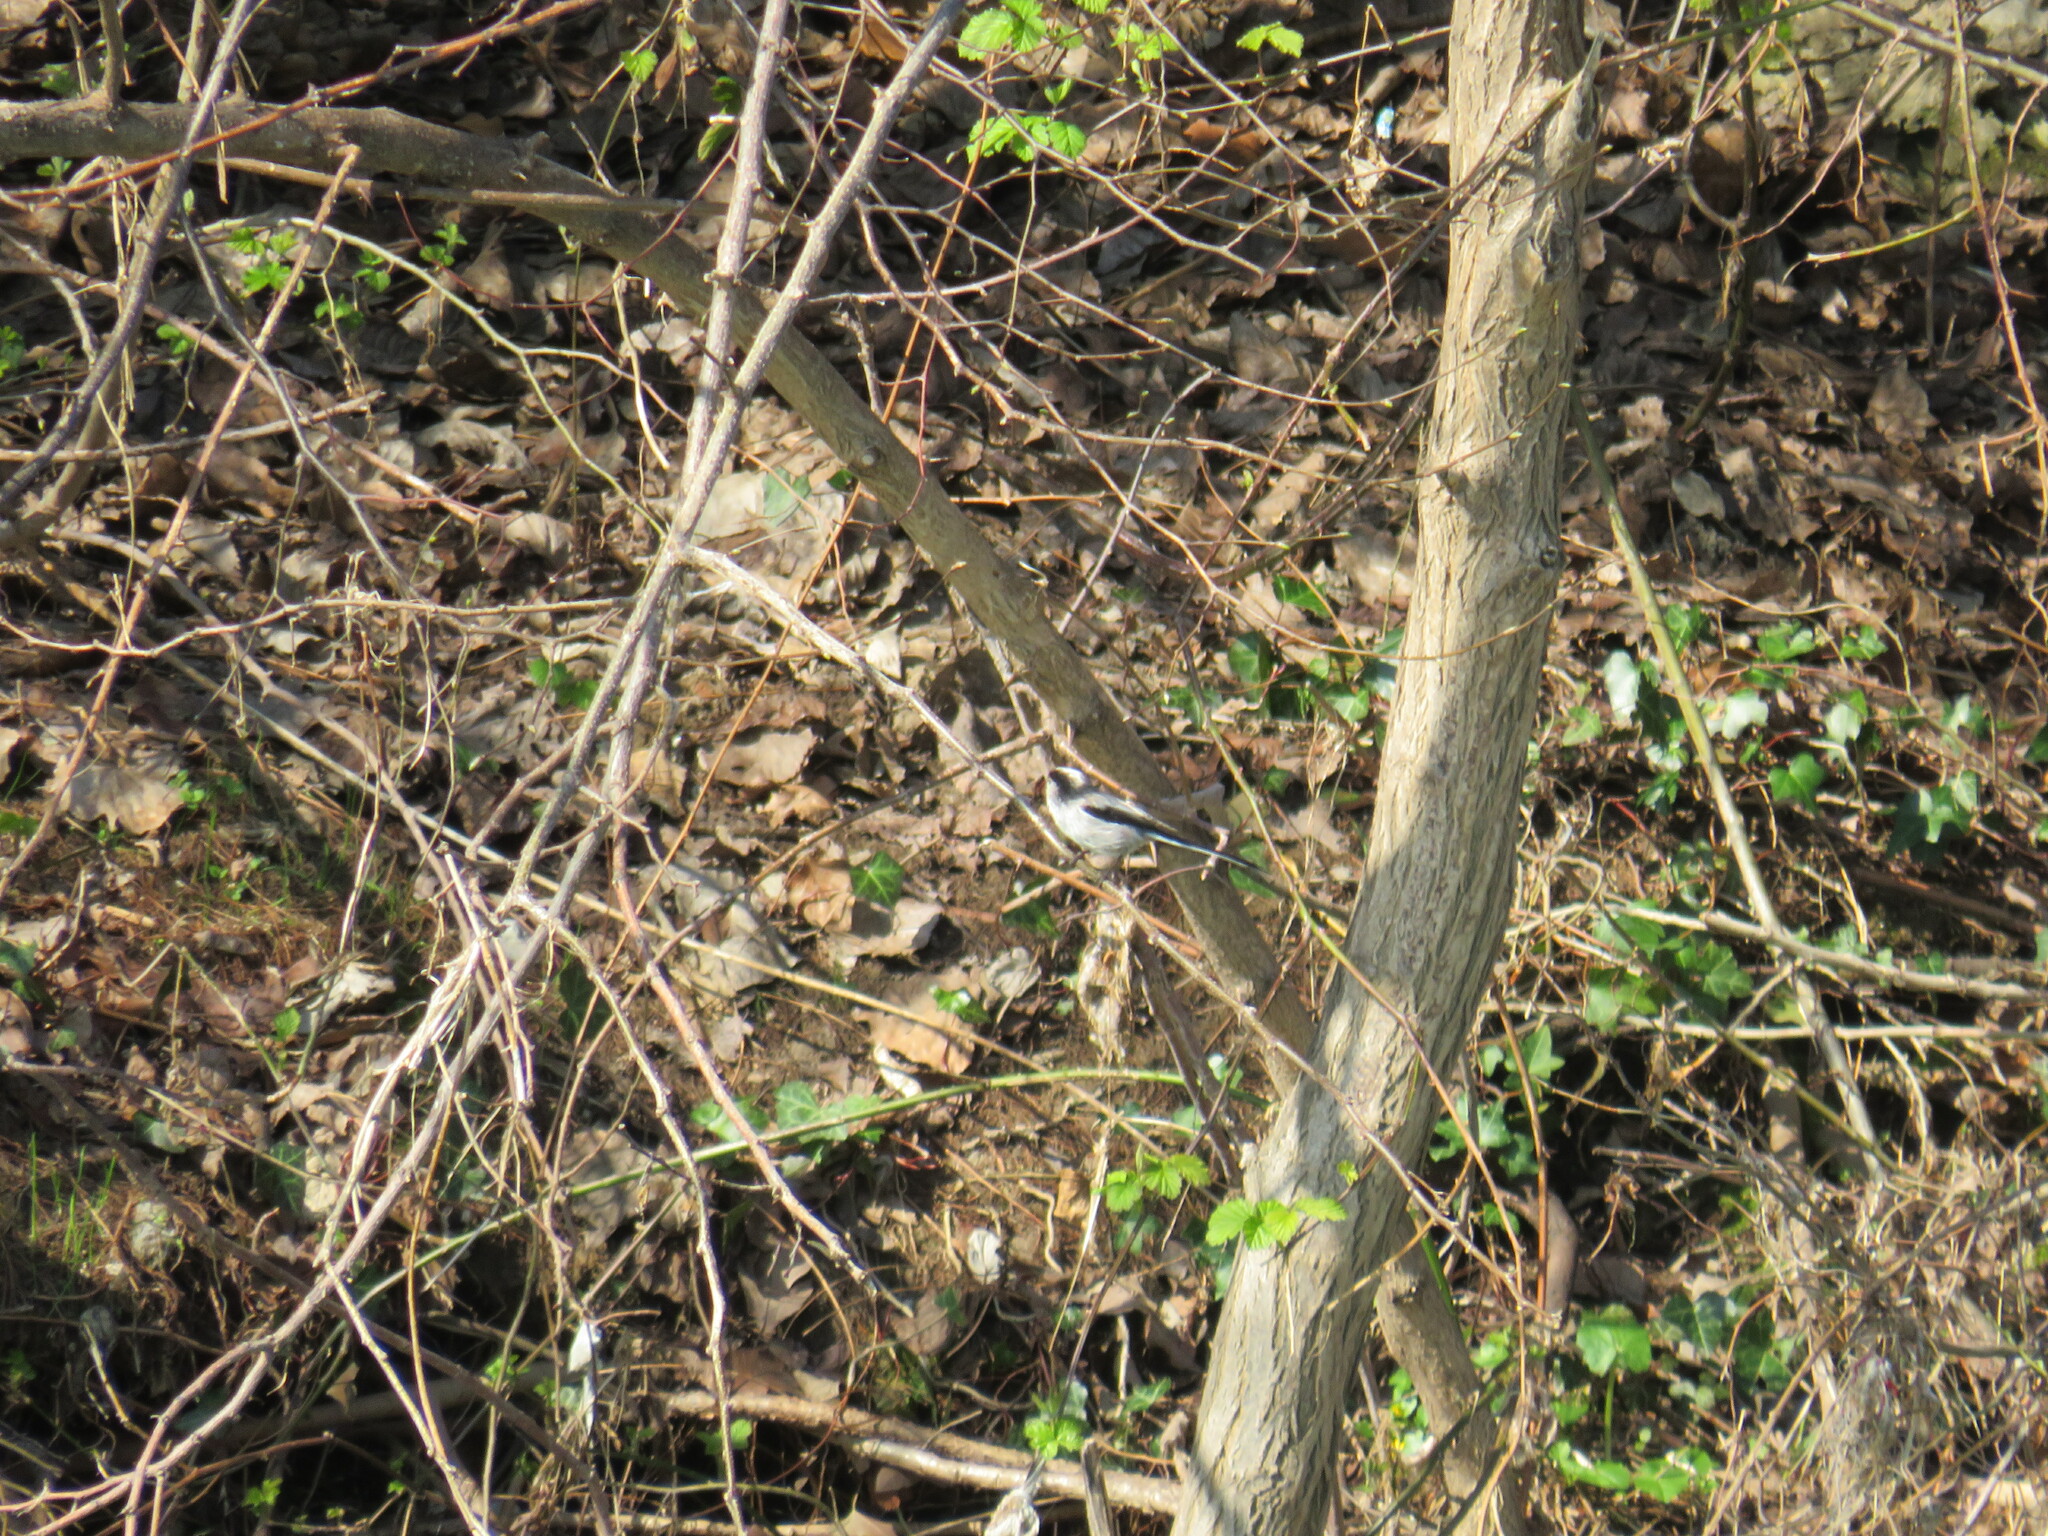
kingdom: Animalia
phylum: Chordata
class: Aves
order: Passeriformes
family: Aegithalidae
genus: Aegithalos
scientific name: Aegithalos caudatus
